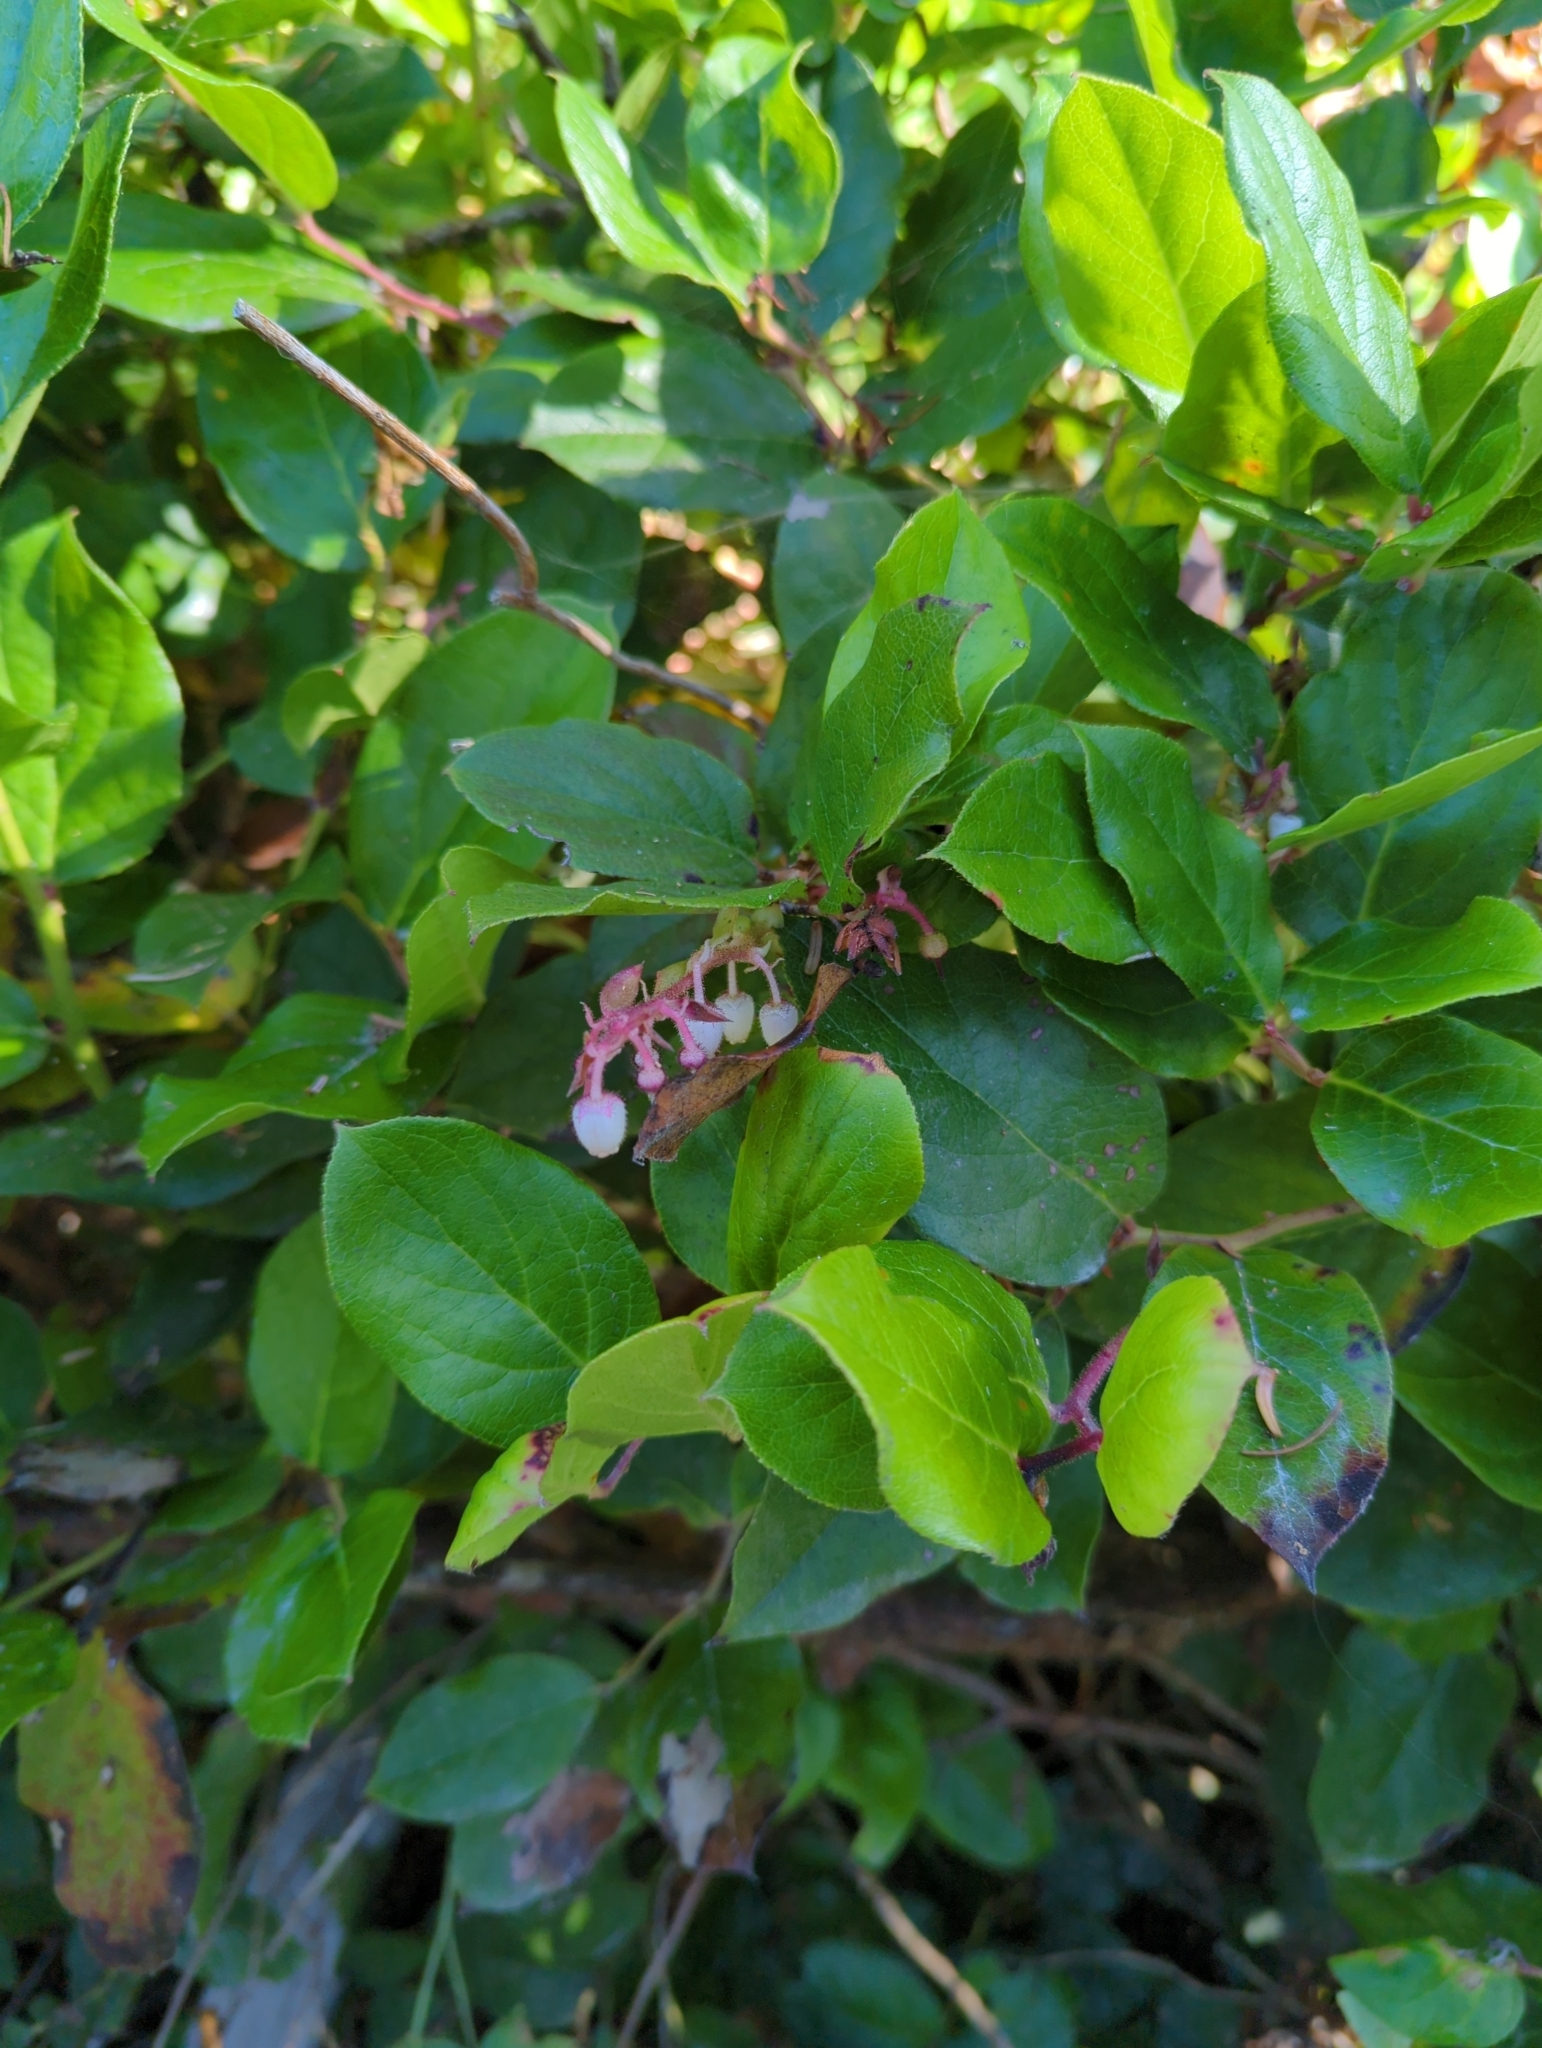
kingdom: Plantae
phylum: Tracheophyta
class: Magnoliopsida
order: Ericales
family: Ericaceae
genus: Gaultheria
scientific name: Gaultheria shallon
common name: Shallon
